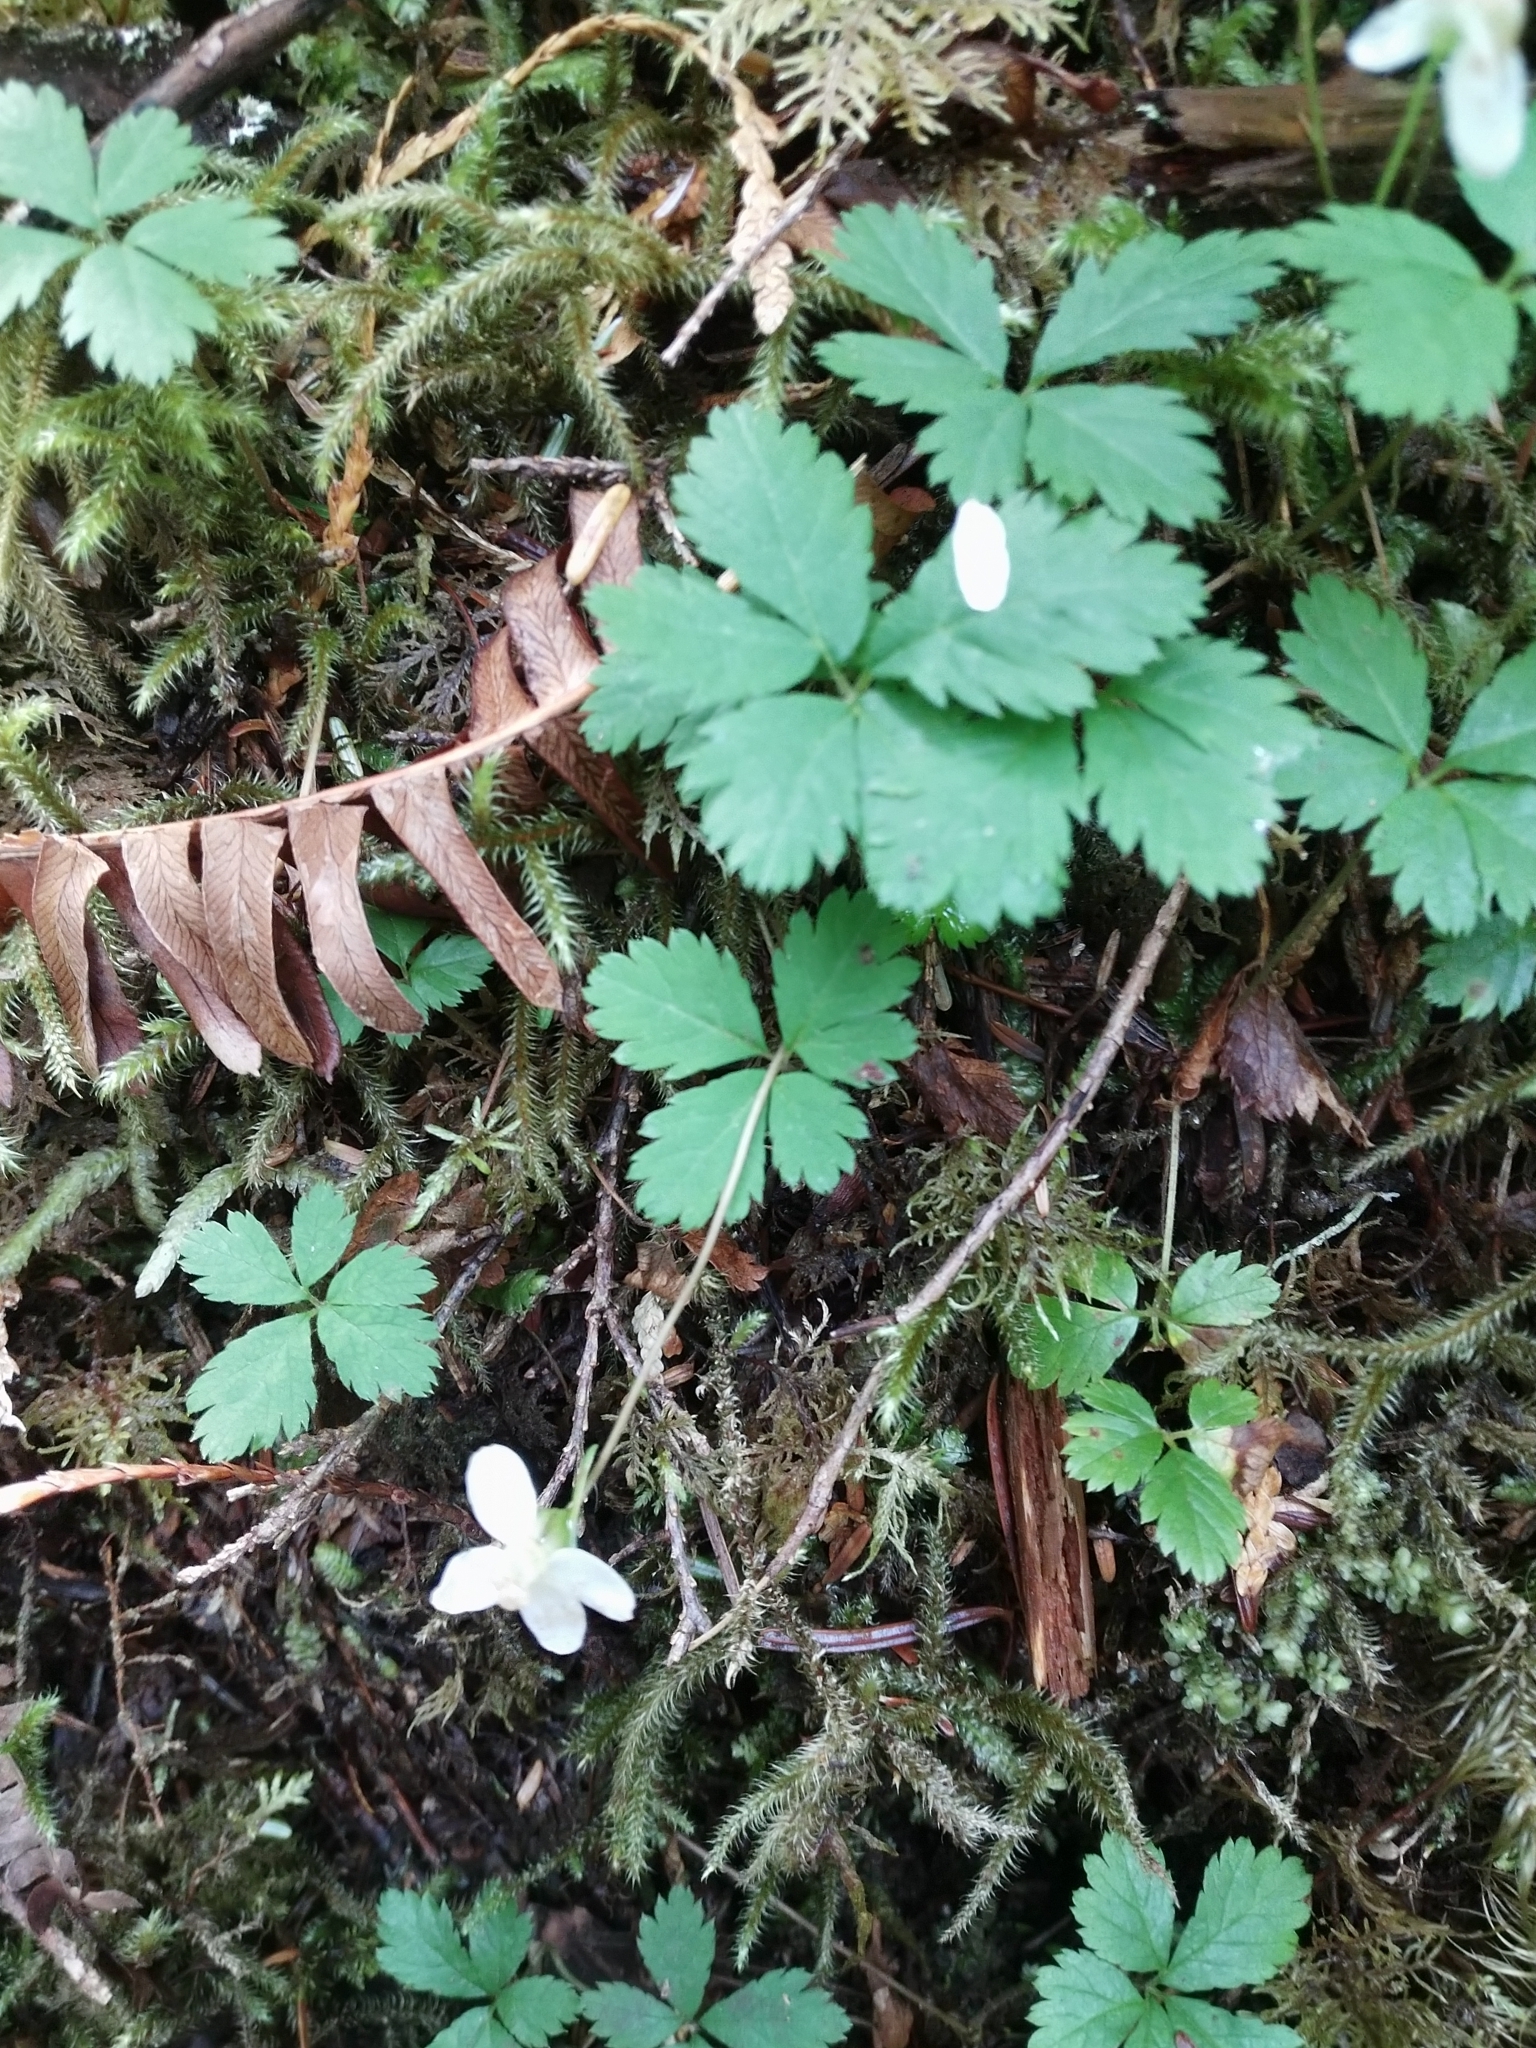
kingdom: Plantae
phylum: Tracheophyta
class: Magnoliopsida
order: Rosales
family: Rosaceae
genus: Rubus
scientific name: Rubus pedatus
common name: Creeping raspberry
